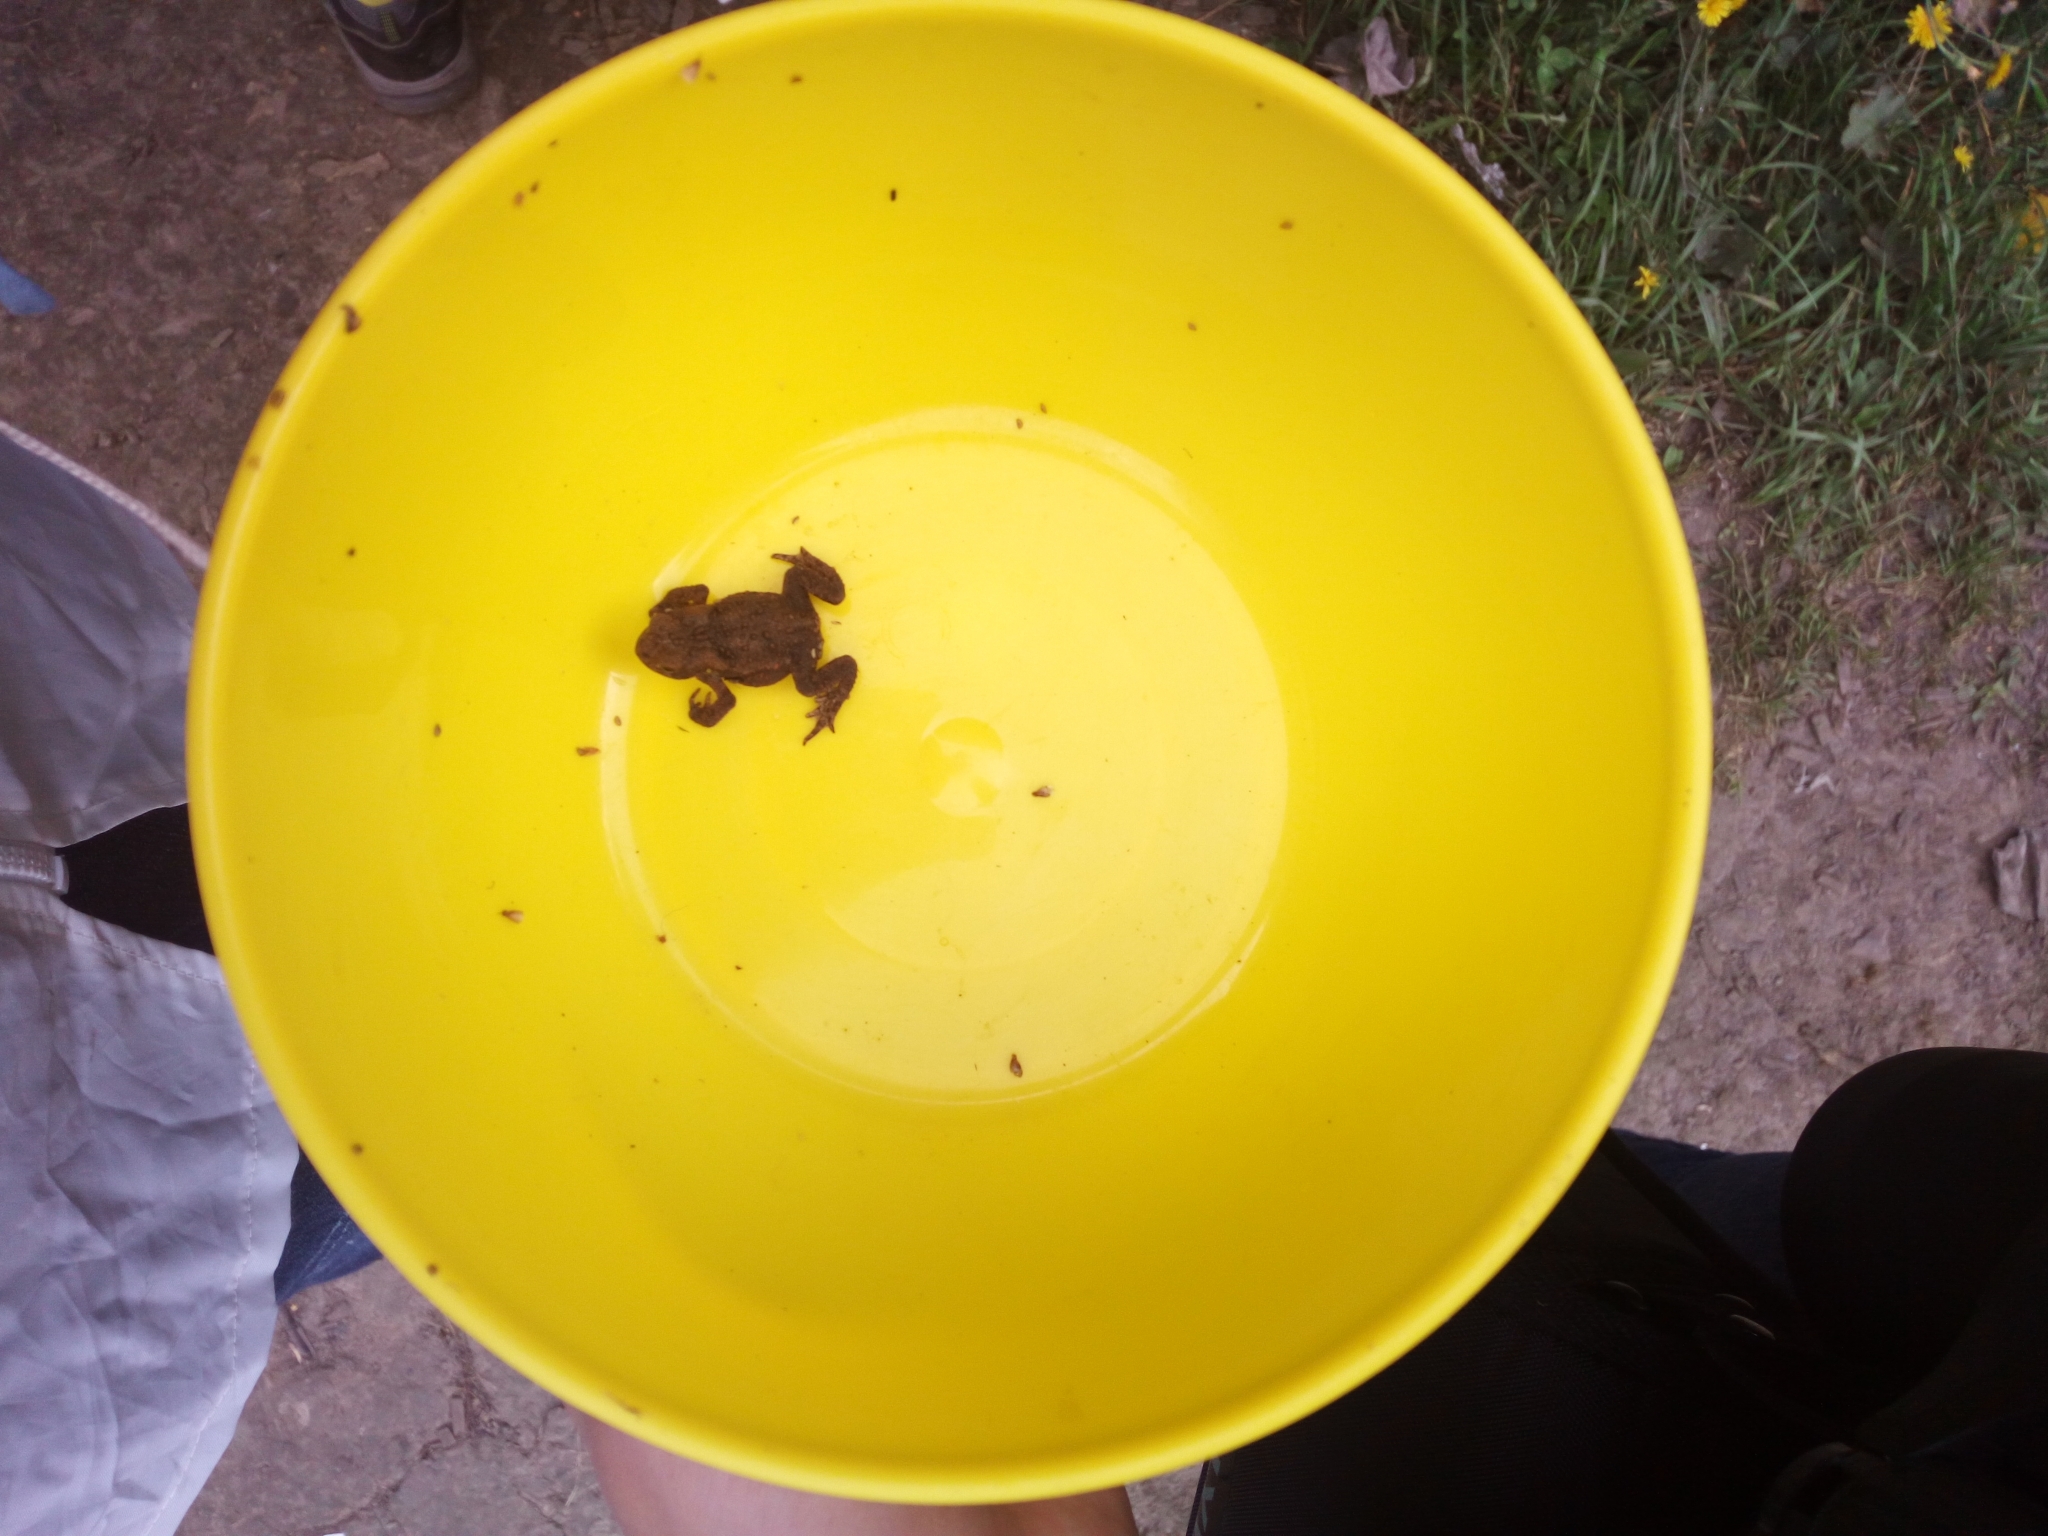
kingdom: Animalia
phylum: Chordata
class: Amphibia
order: Anura
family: Bufonidae
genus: Bufo
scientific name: Bufo bufo
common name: Common toad
